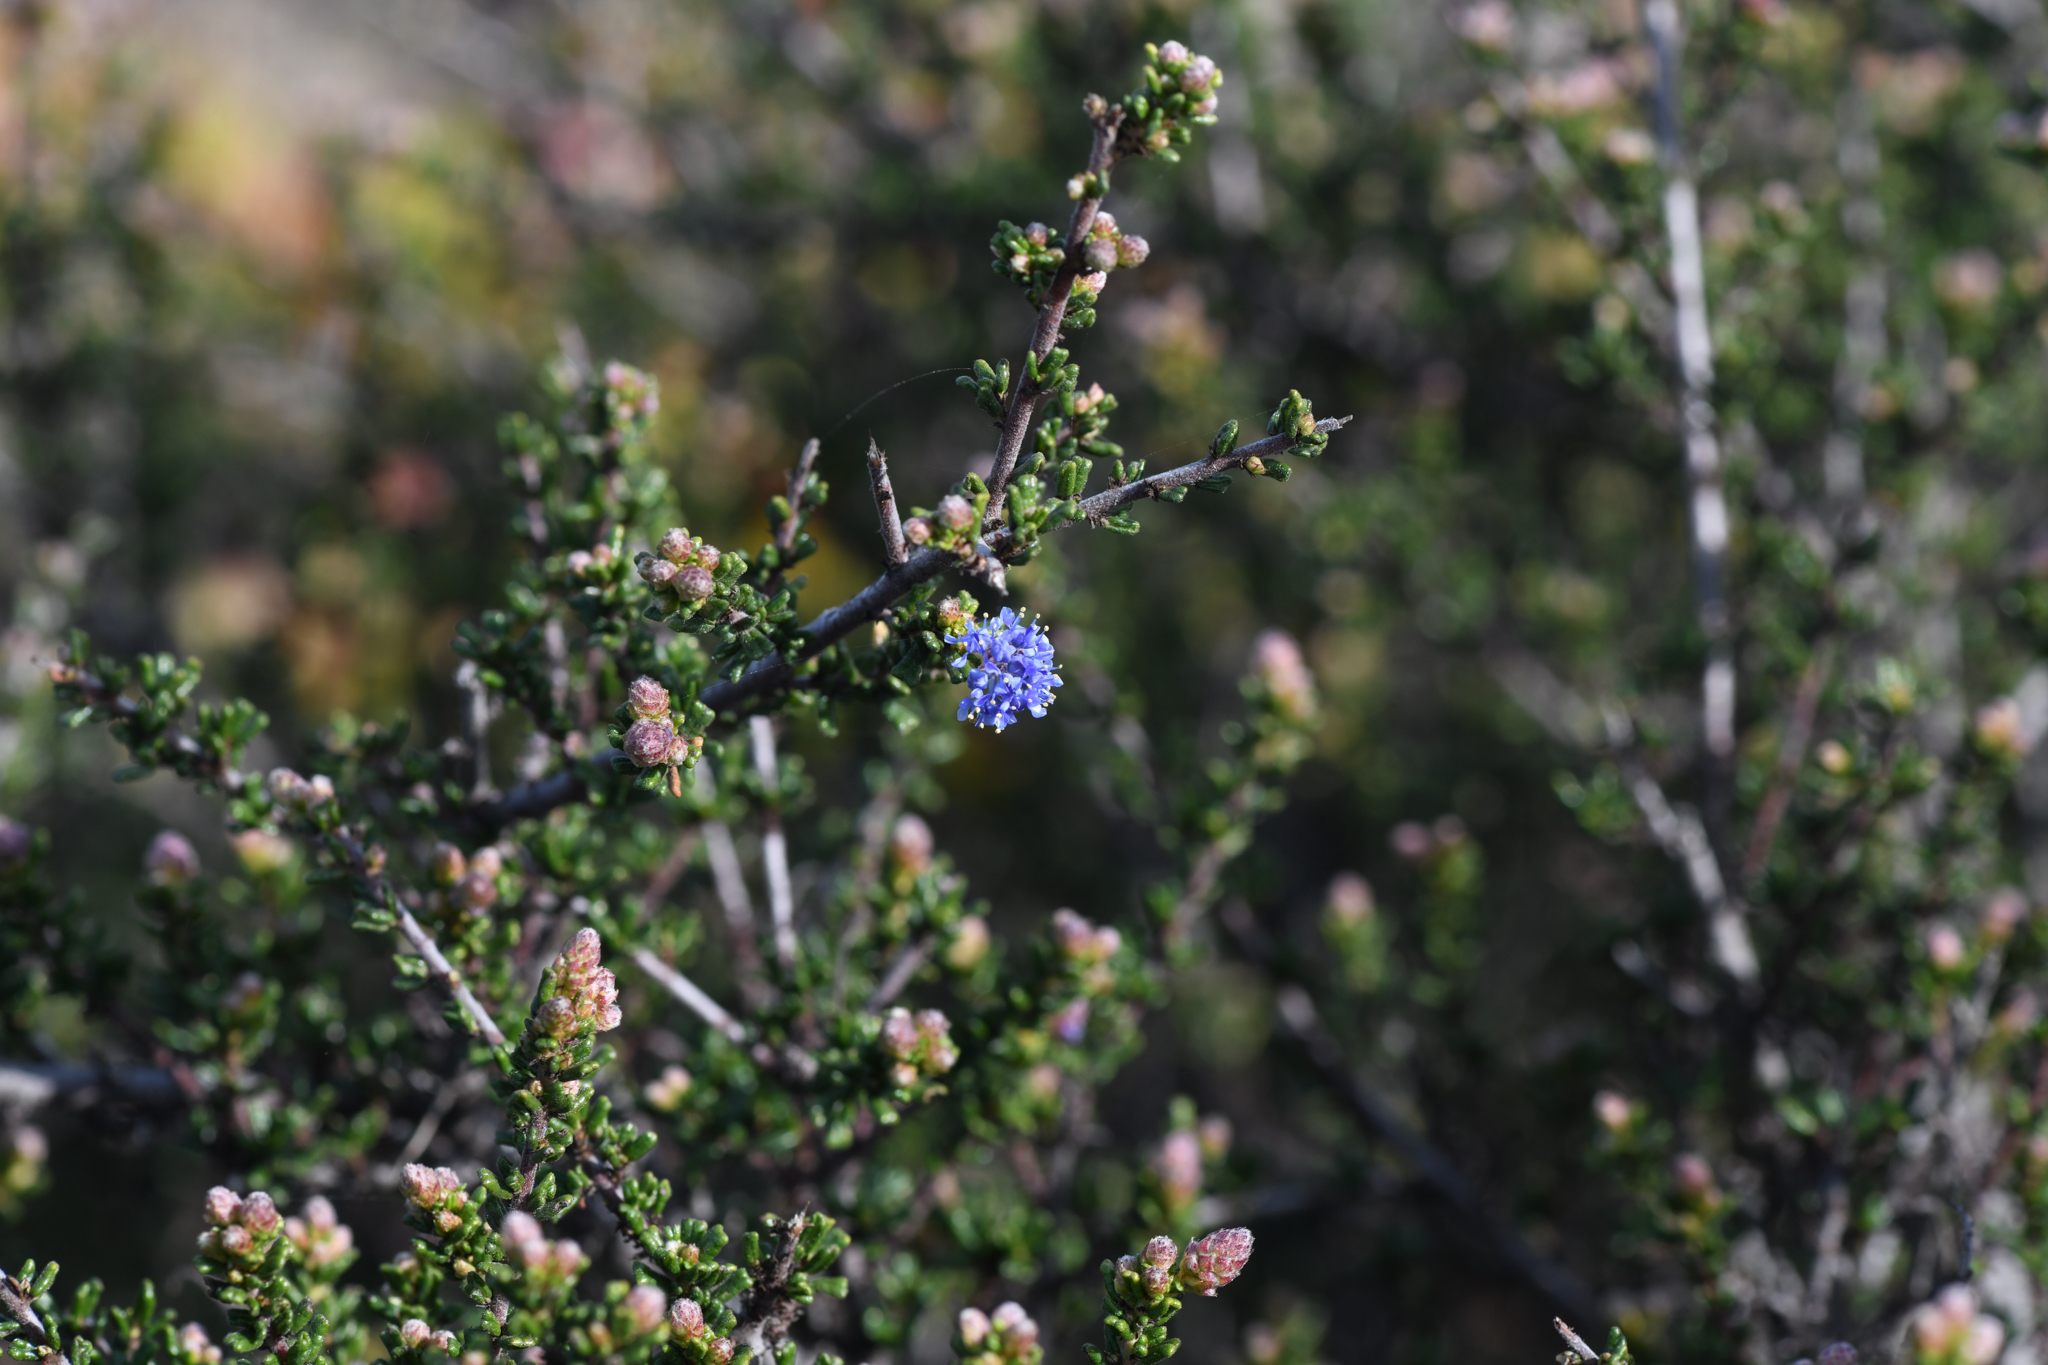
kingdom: Plantae
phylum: Tracheophyta
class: Magnoliopsida
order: Rosales
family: Rhamnaceae
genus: Ceanothus
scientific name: Ceanothus dentatus
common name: Crop-leaf ceanothus
